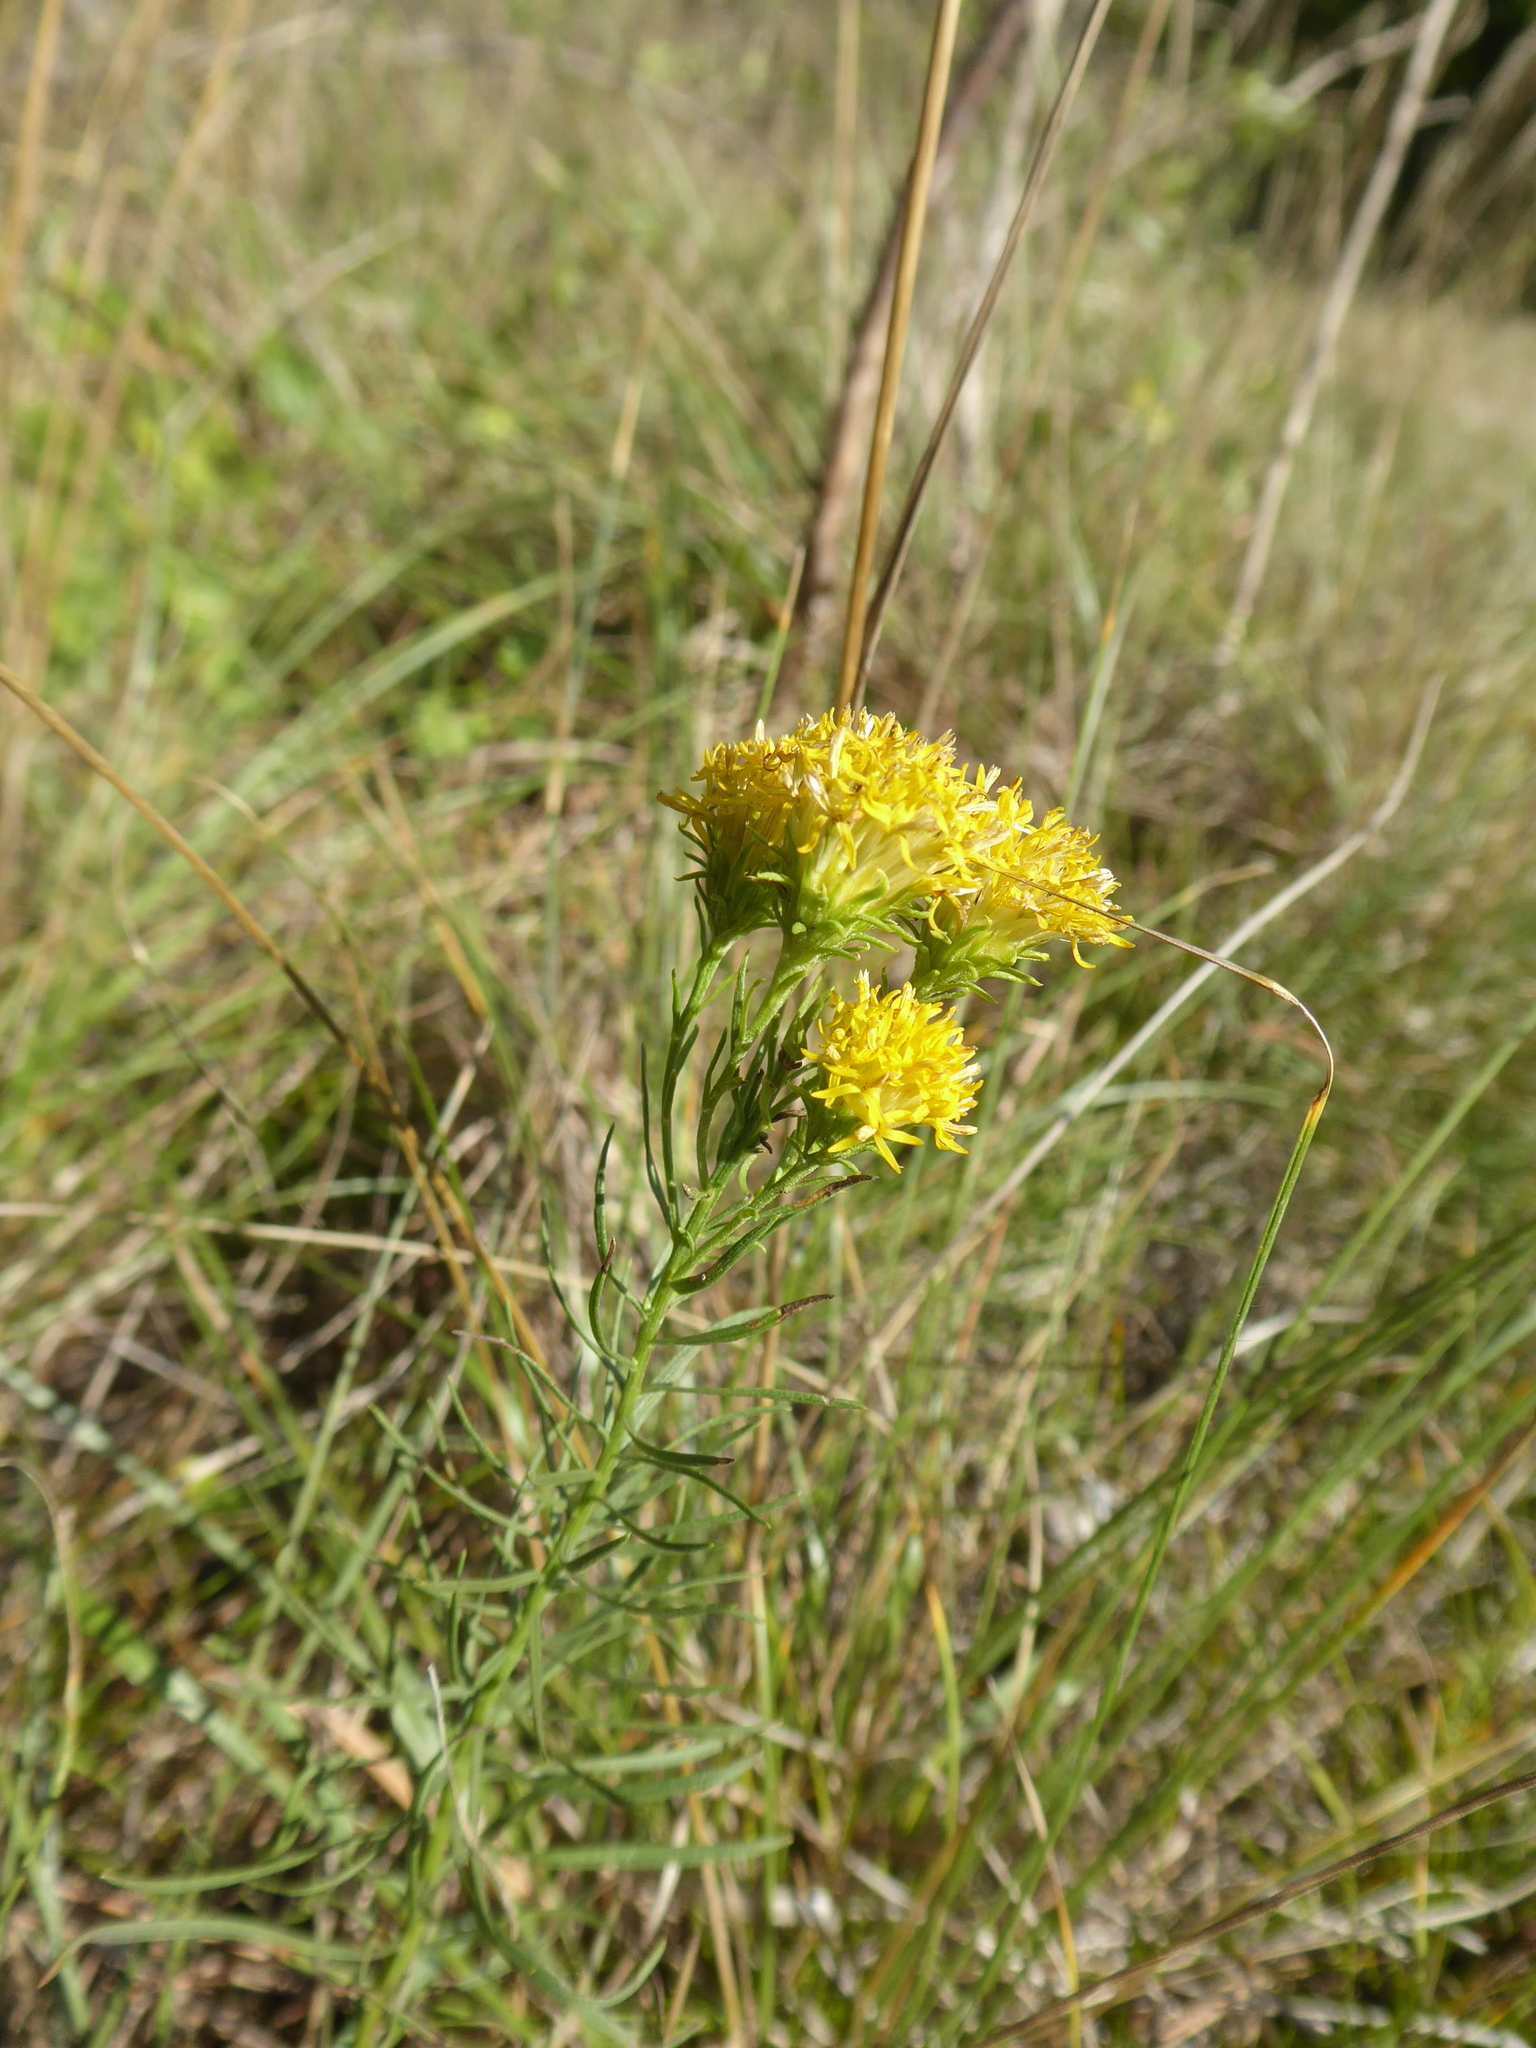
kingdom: Plantae
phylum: Tracheophyta
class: Magnoliopsida
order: Asterales
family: Asteraceae
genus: Galatella
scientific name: Galatella linosyris
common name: Goldilocks aster
